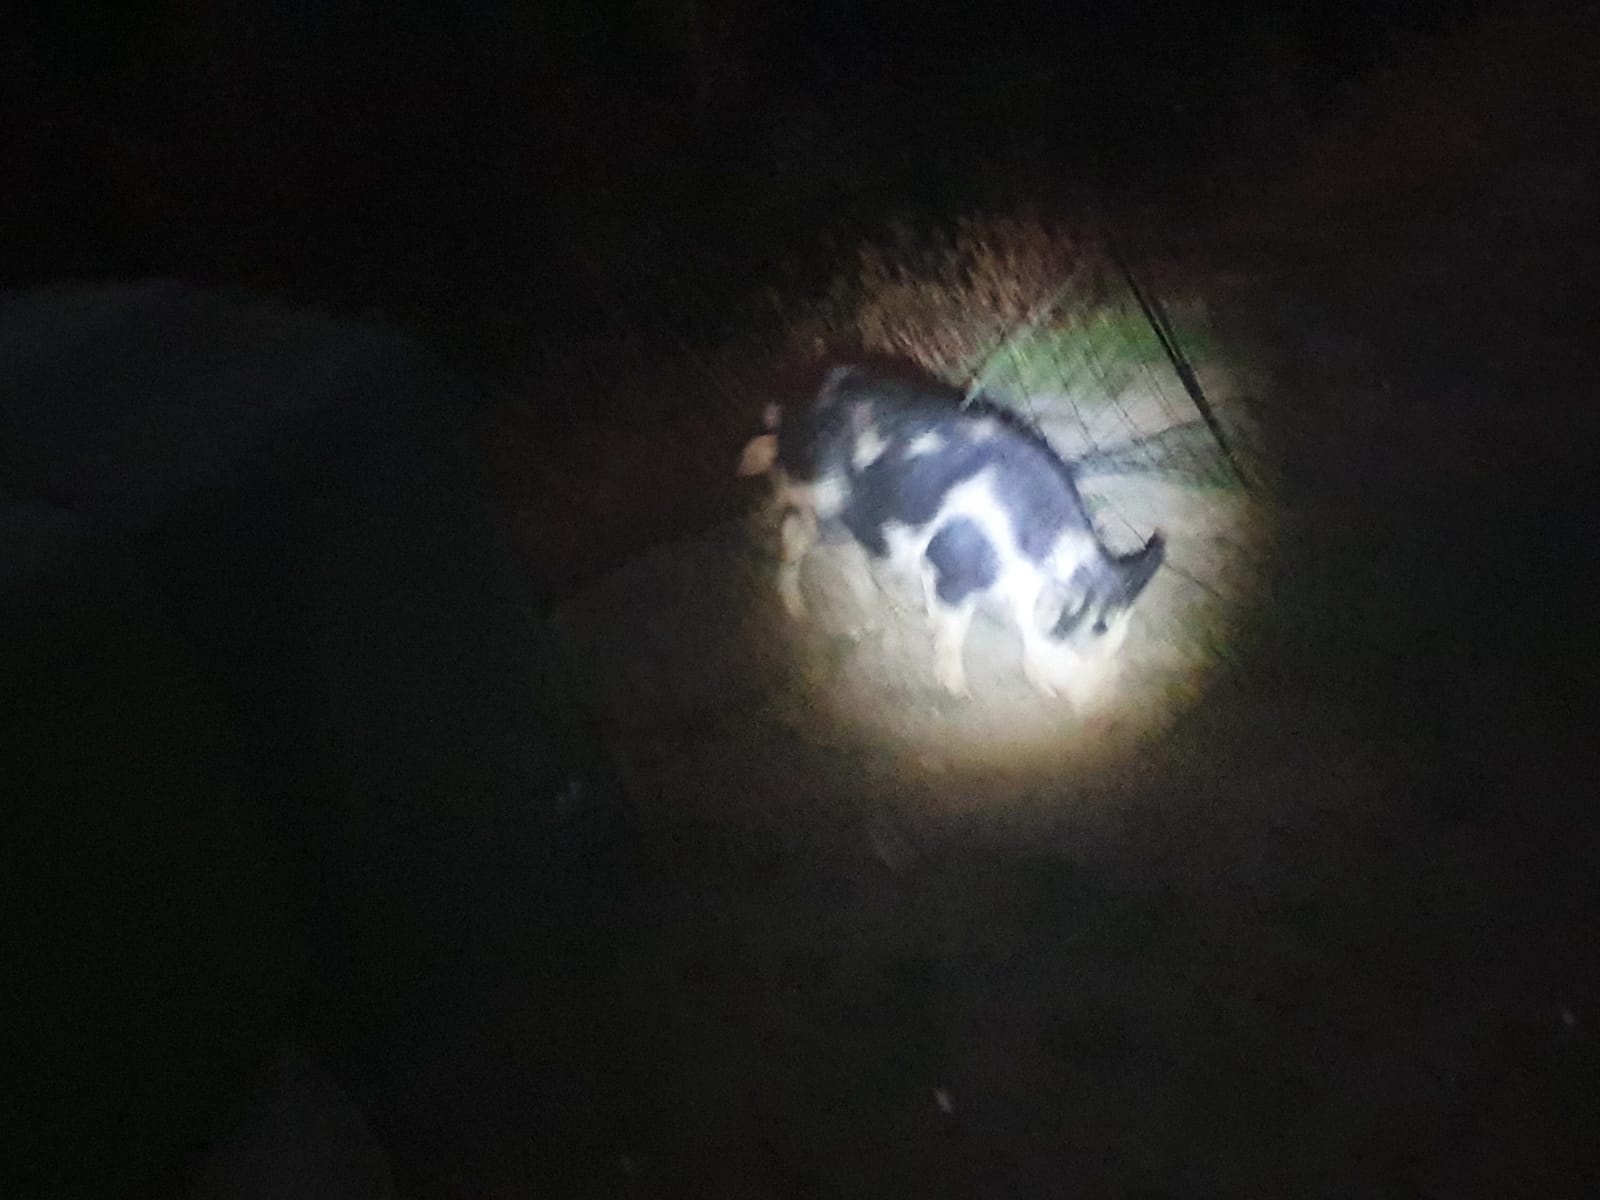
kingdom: Animalia
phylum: Chordata
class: Mammalia
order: Artiodactyla
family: Suidae
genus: Sus
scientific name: Sus scrofa
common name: Wild boar
